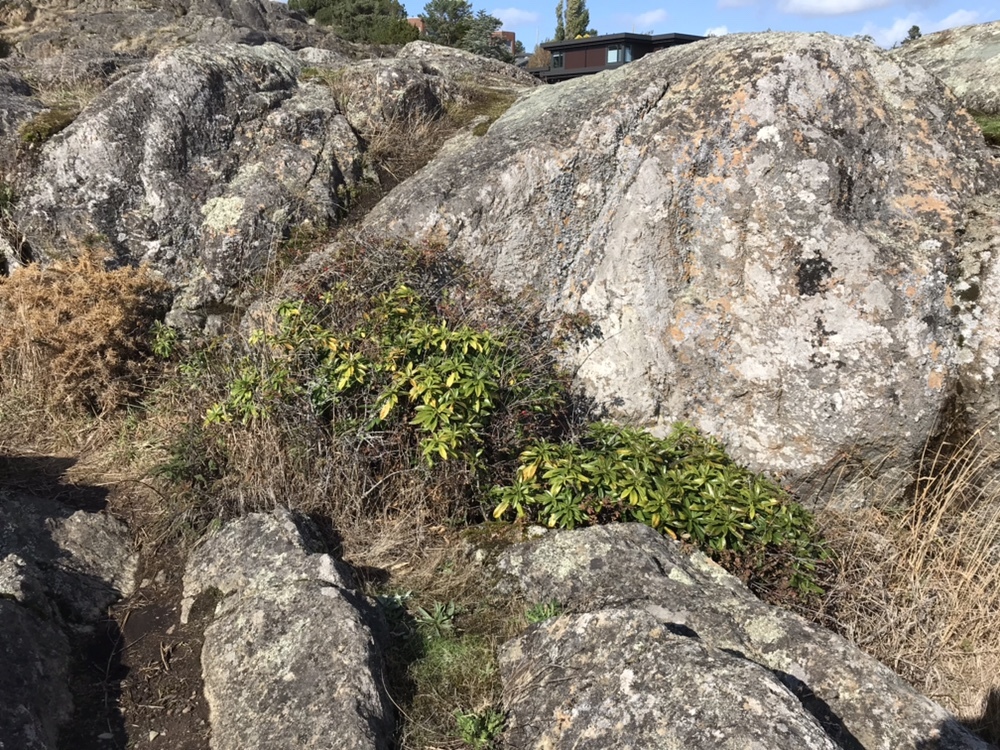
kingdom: Plantae
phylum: Tracheophyta
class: Magnoliopsida
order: Malvales
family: Thymelaeaceae
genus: Daphne
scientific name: Daphne laureola
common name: Spurge-laurel
